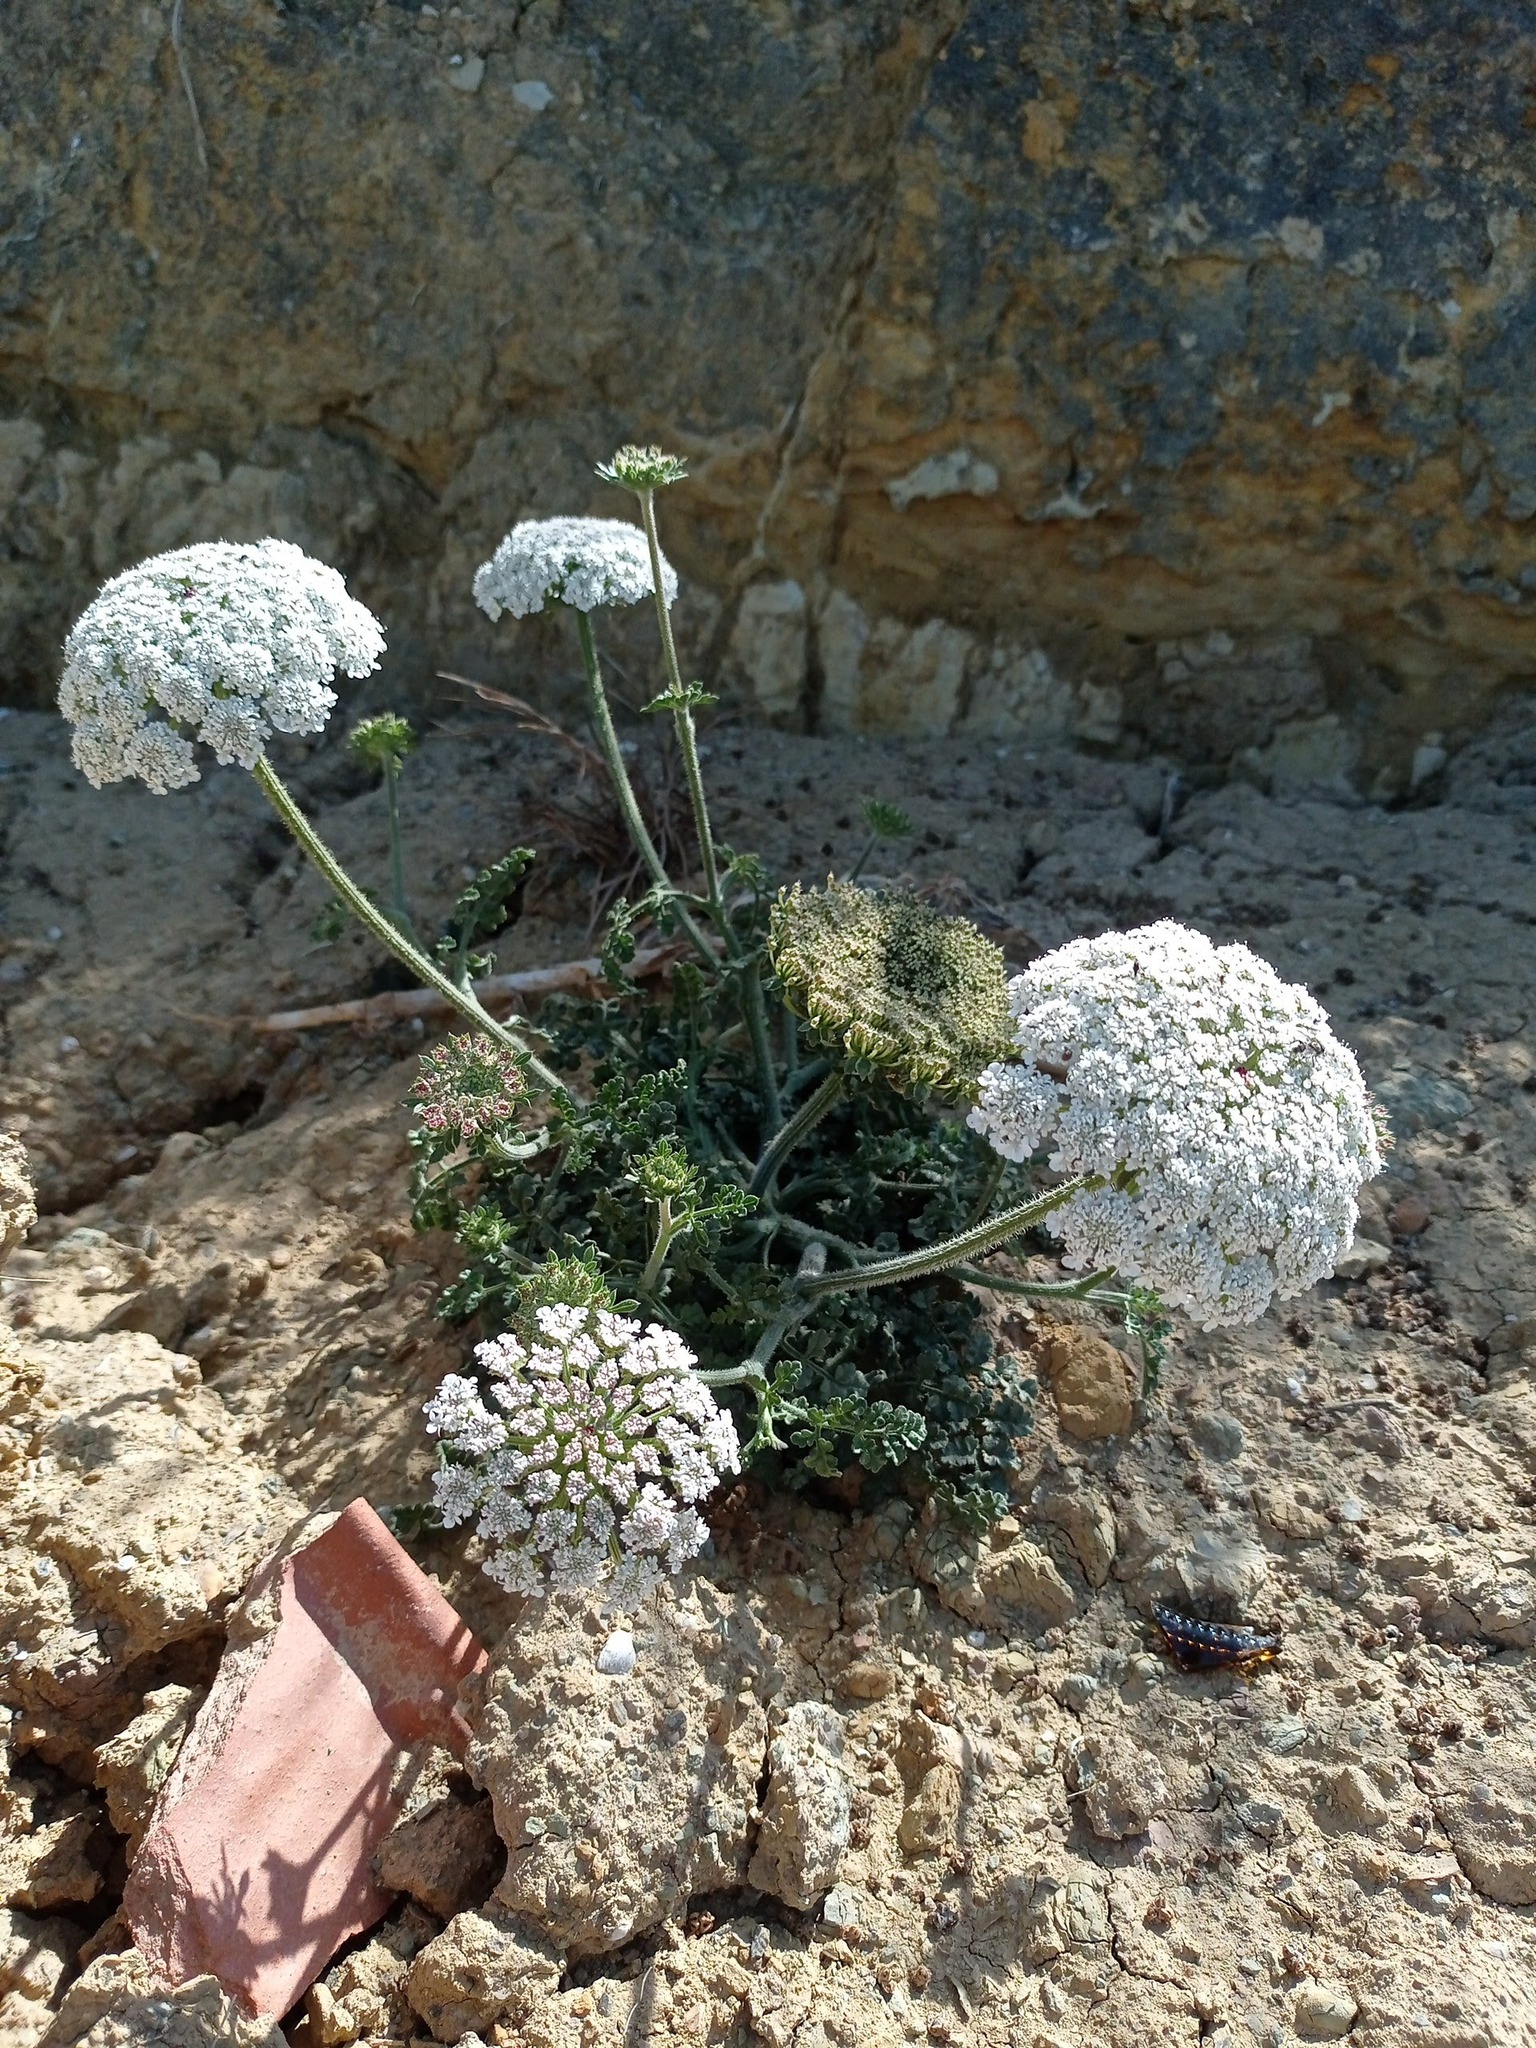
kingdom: Plantae
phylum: Tracheophyta
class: Magnoliopsida
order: Apiales
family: Apiaceae
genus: Daucus
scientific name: Daucus carota
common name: Wild carrot
